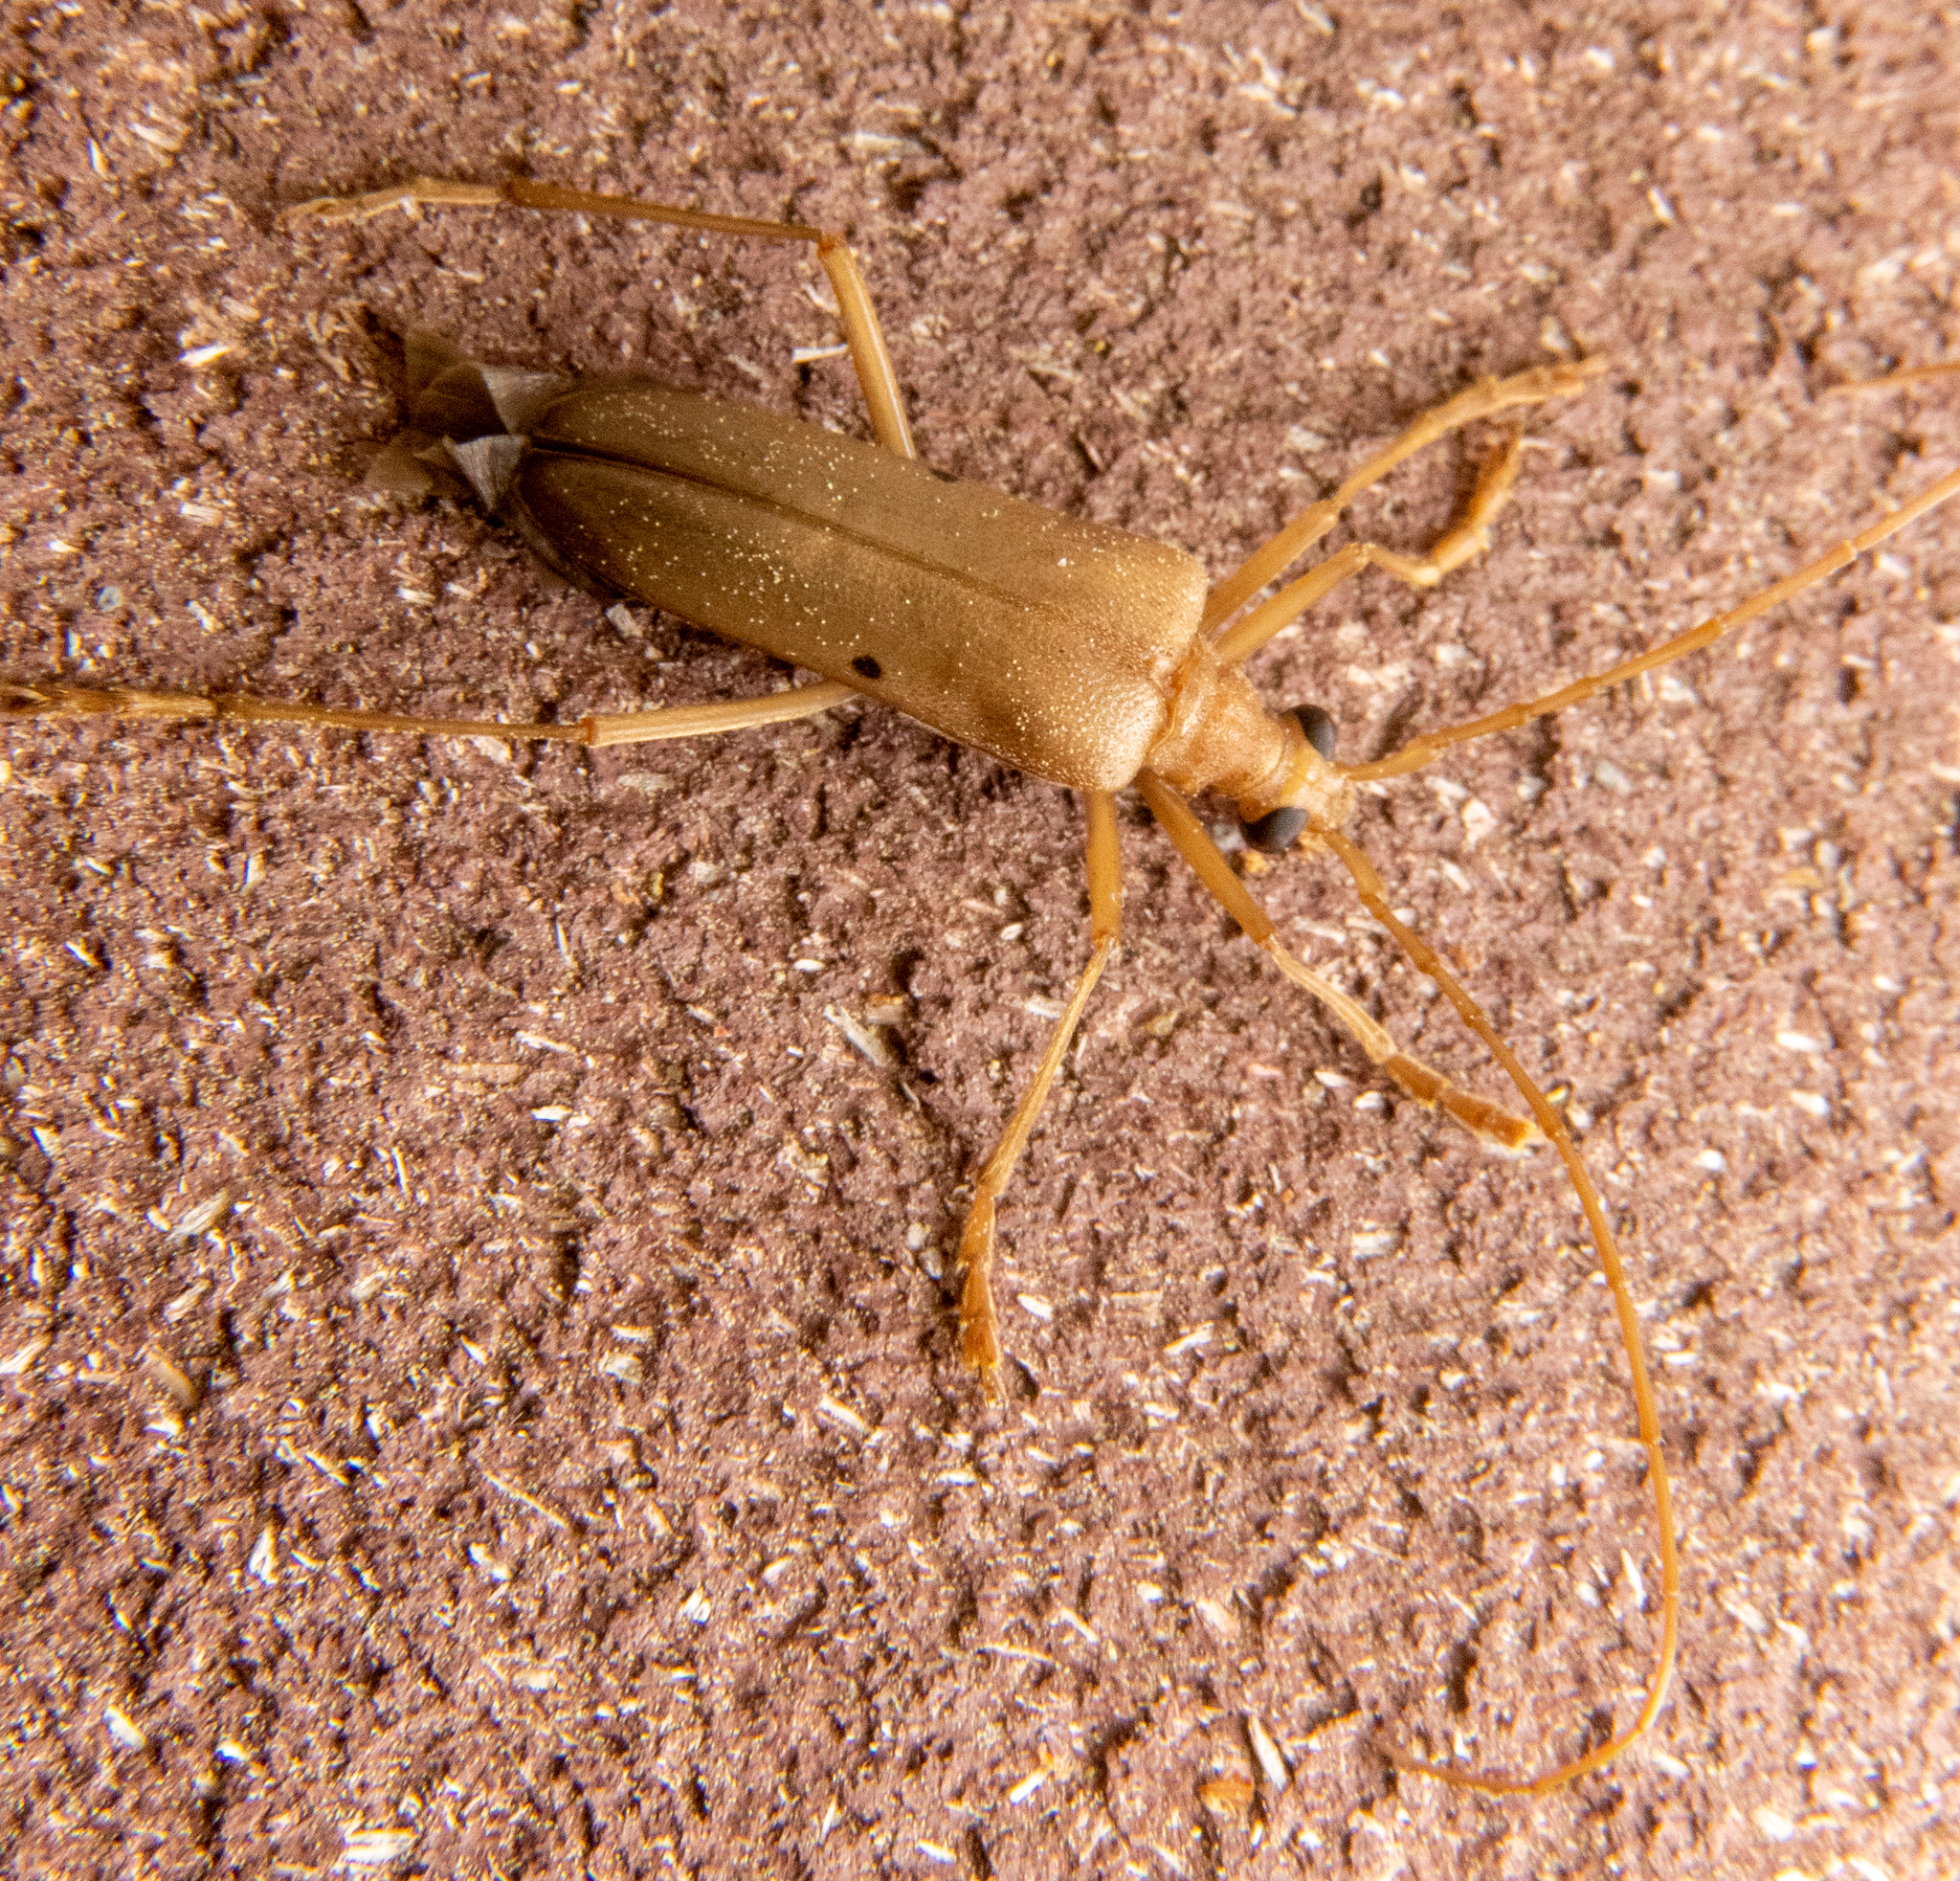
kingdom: Animalia
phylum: Arthropoda
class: Insecta
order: Coleoptera
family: Cerambycidae
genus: Centrodera
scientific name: Centrodera spurca
